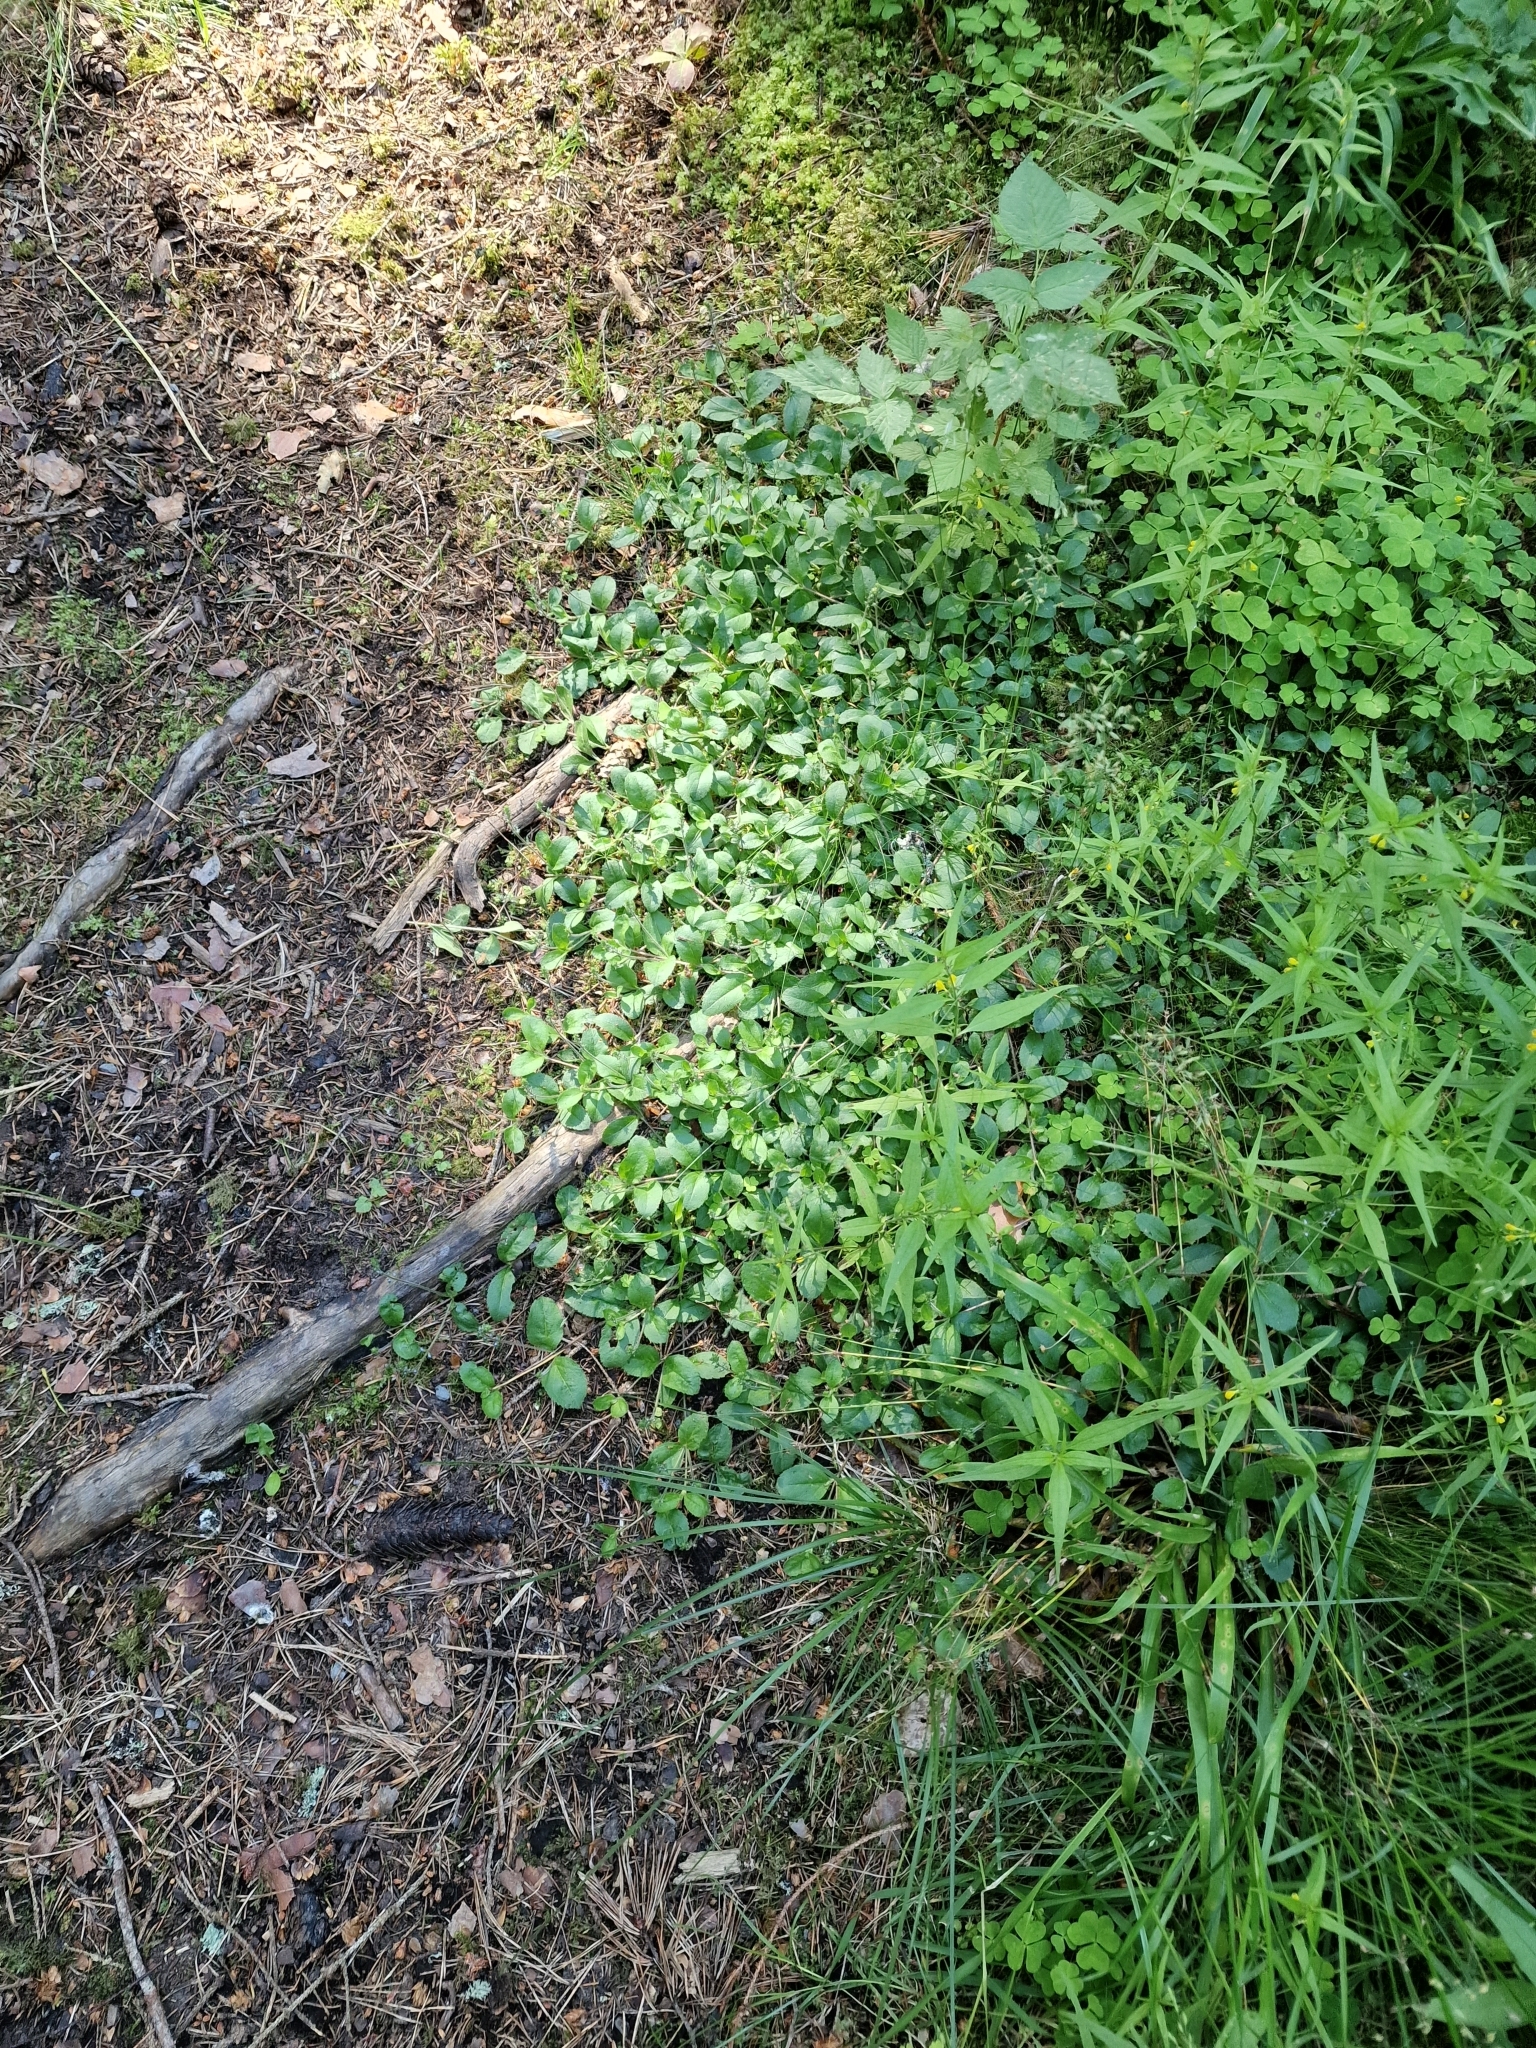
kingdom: Plantae
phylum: Tracheophyta
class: Magnoliopsida
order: Lamiales
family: Plantaginaceae
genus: Veronica
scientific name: Veronica officinalis
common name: Common speedwell
